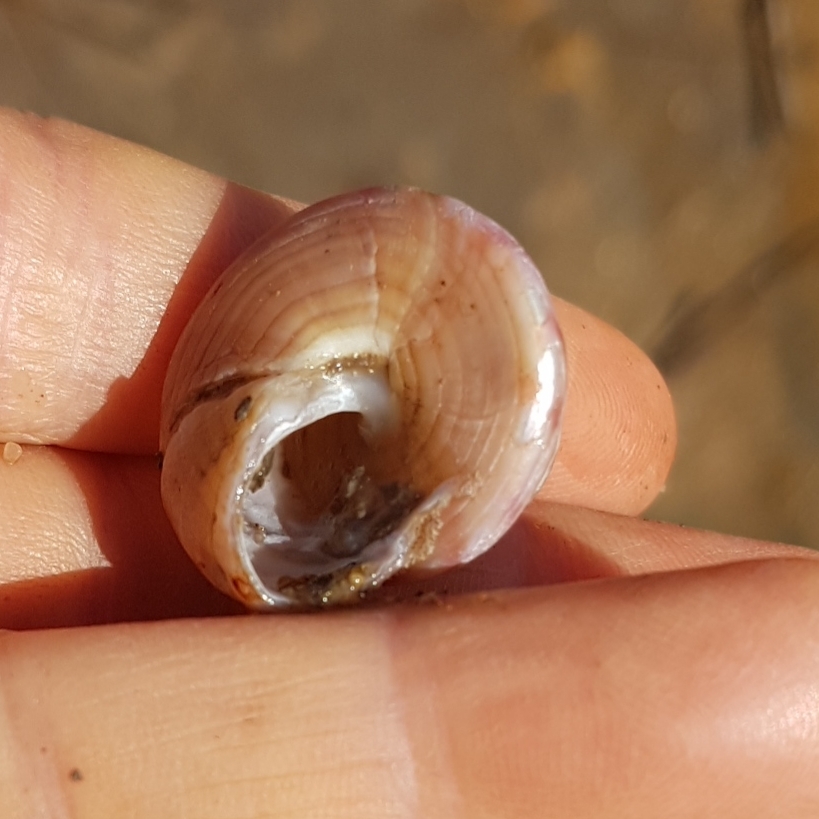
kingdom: Animalia
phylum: Mollusca
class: Gastropoda
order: Trochida
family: Calliostomatidae
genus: Calliostoma
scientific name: Calliostoma zizyphinum
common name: Painted top shell
